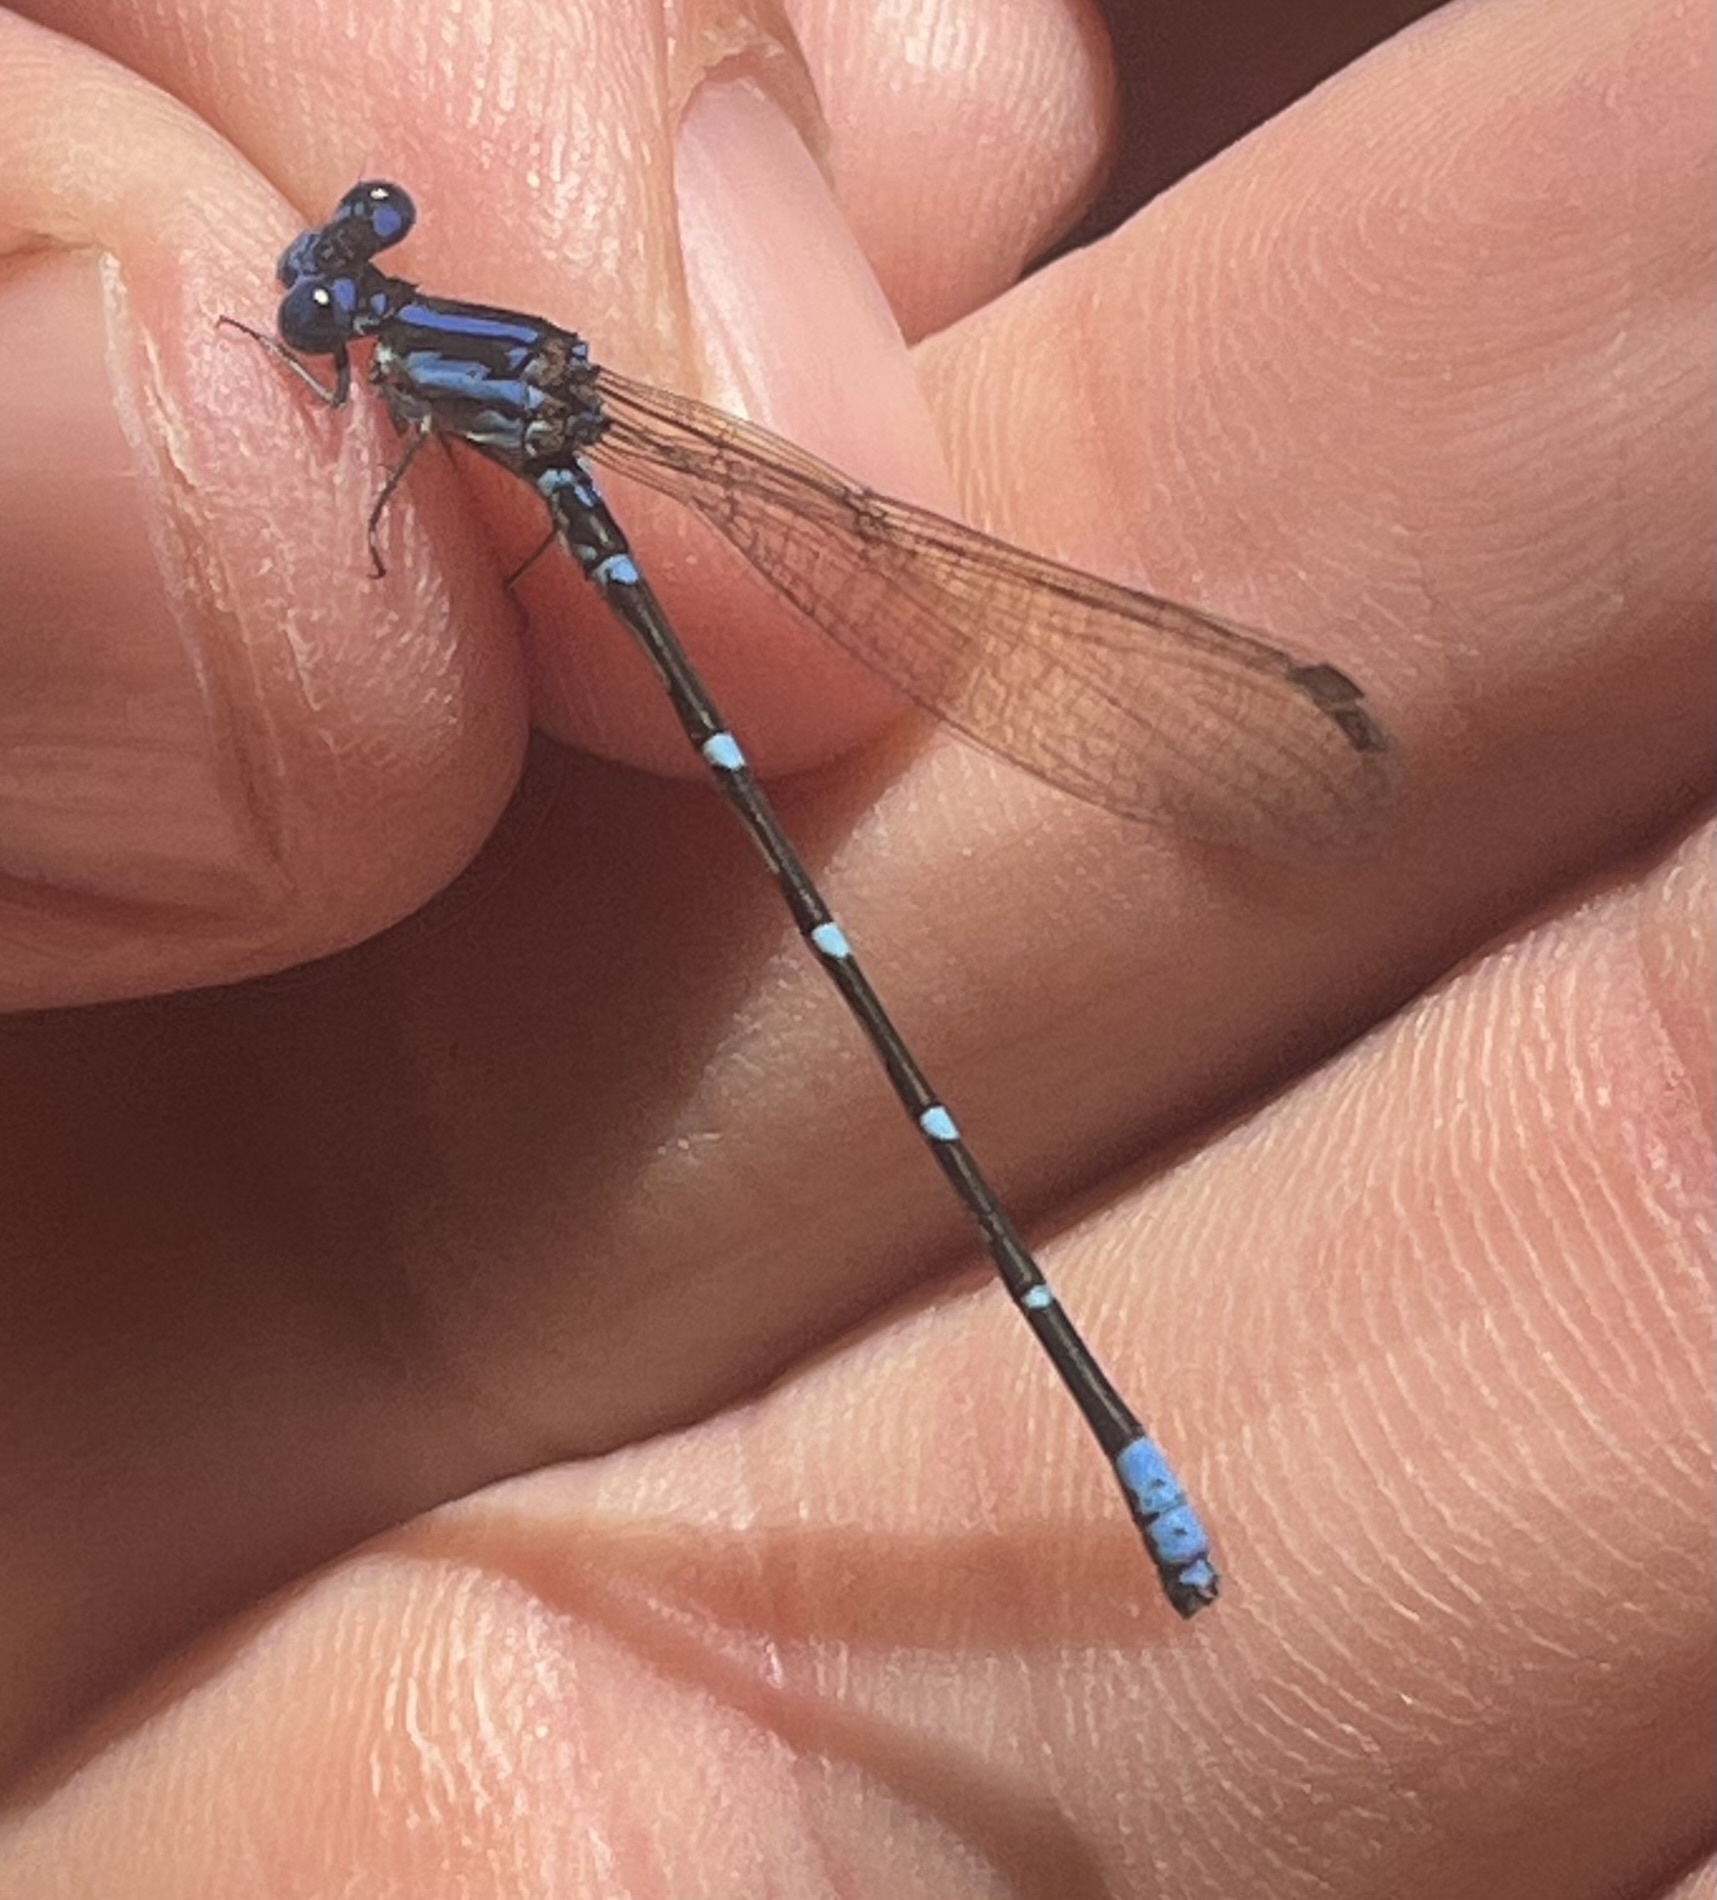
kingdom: Animalia
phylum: Arthropoda
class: Insecta
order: Odonata
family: Coenagrionidae
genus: Argia
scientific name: Argia sedula
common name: Blue-ringed dancer
